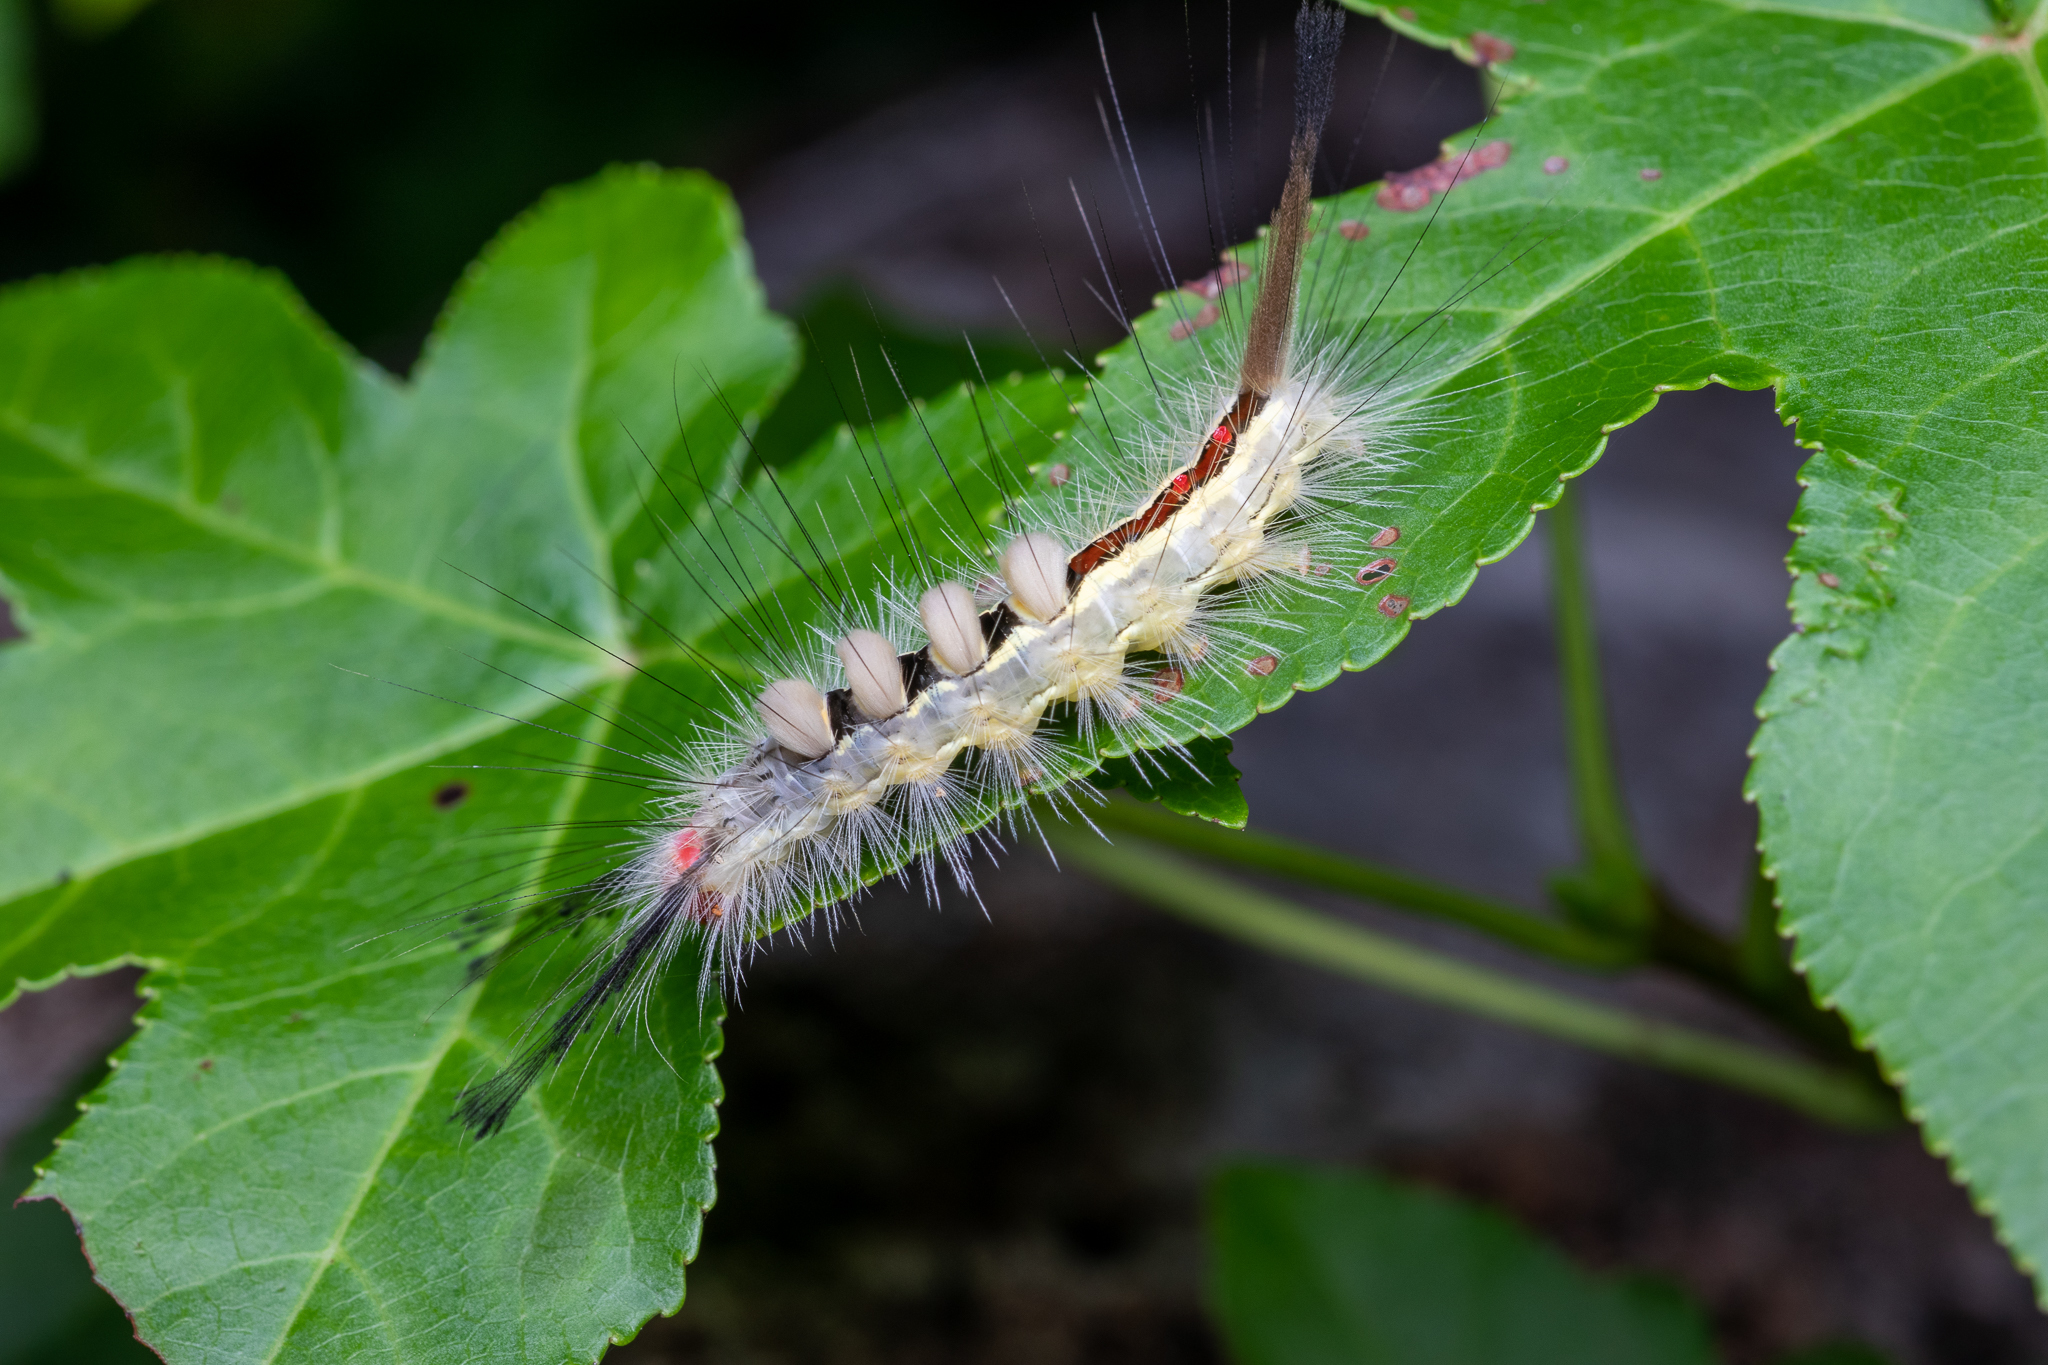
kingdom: Animalia
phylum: Arthropoda
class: Insecta
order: Lepidoptera
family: Erebidae
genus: Orgyia
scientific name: Orgyia leucostigma
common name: White-marked tussock moth
